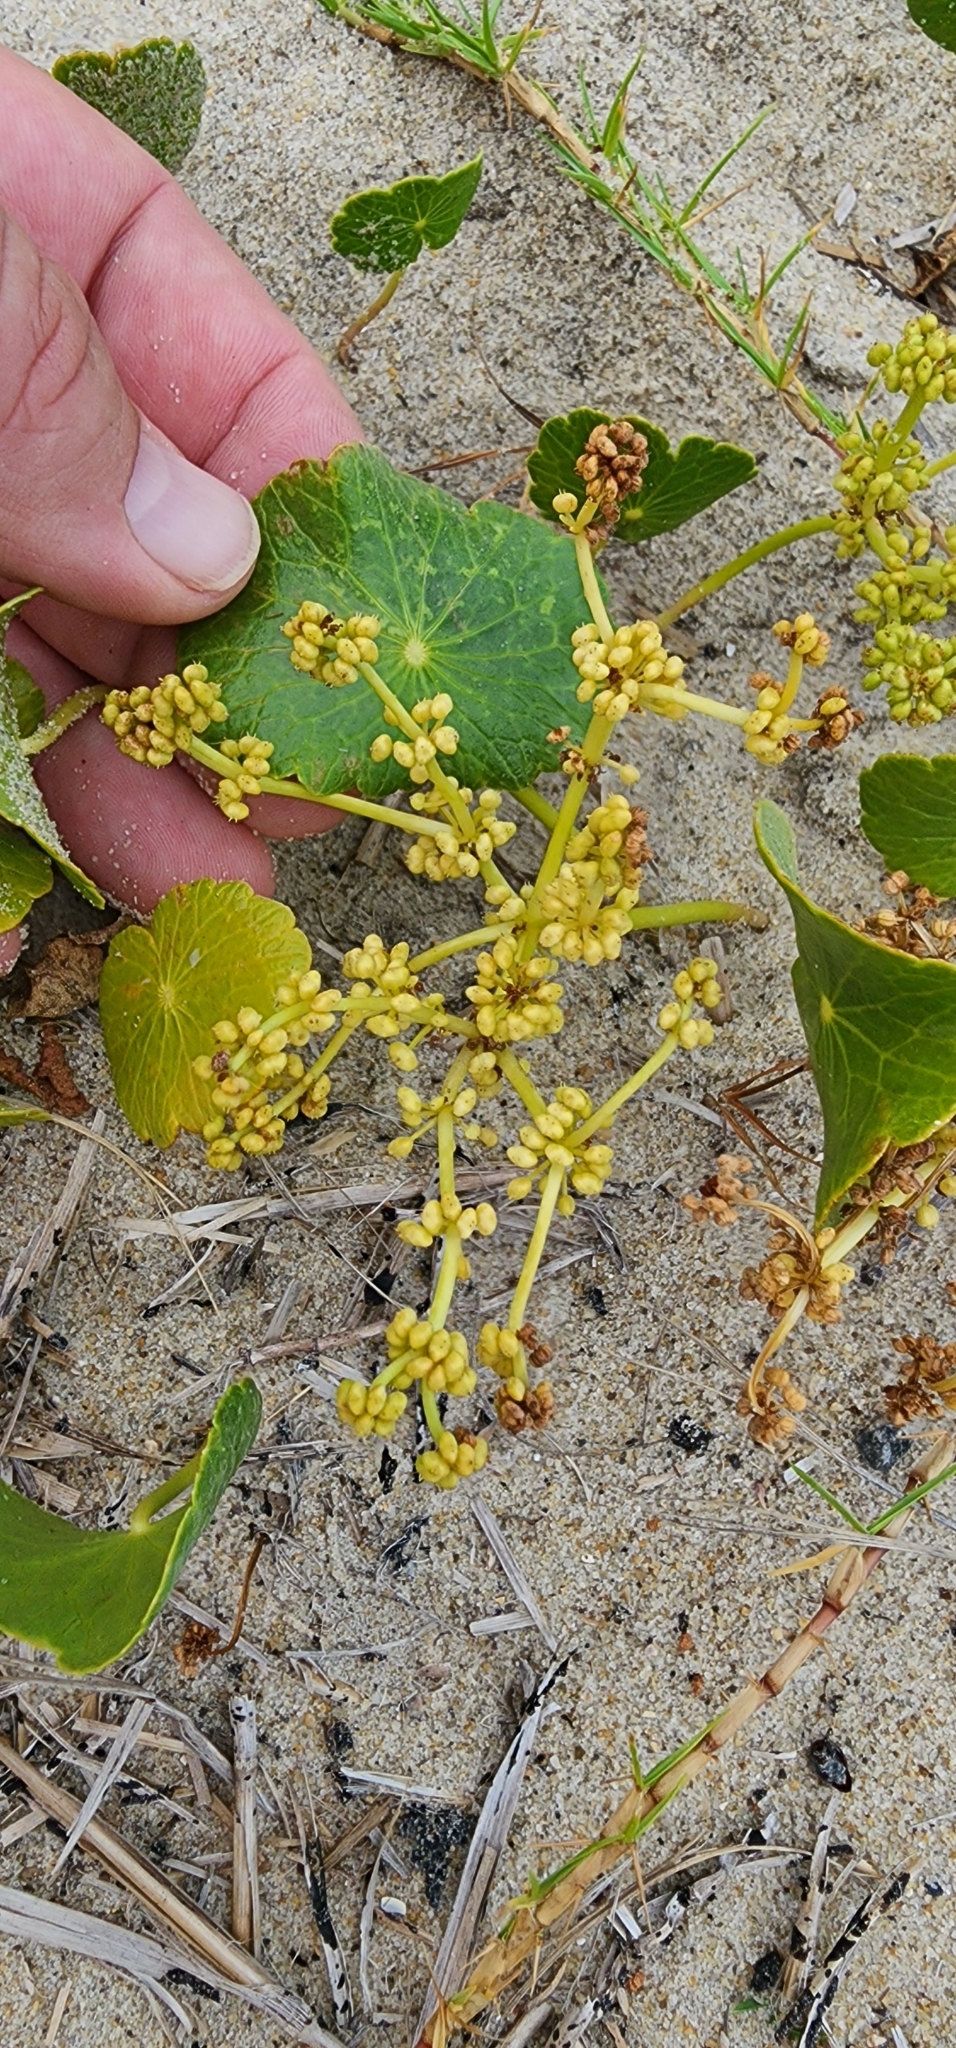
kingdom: Plantae
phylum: Tracheophyta
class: Magnoliopsida
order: Apiales
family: Araliaceae
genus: Hydrocotyle
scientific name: Hydrocotyle bonariensis
